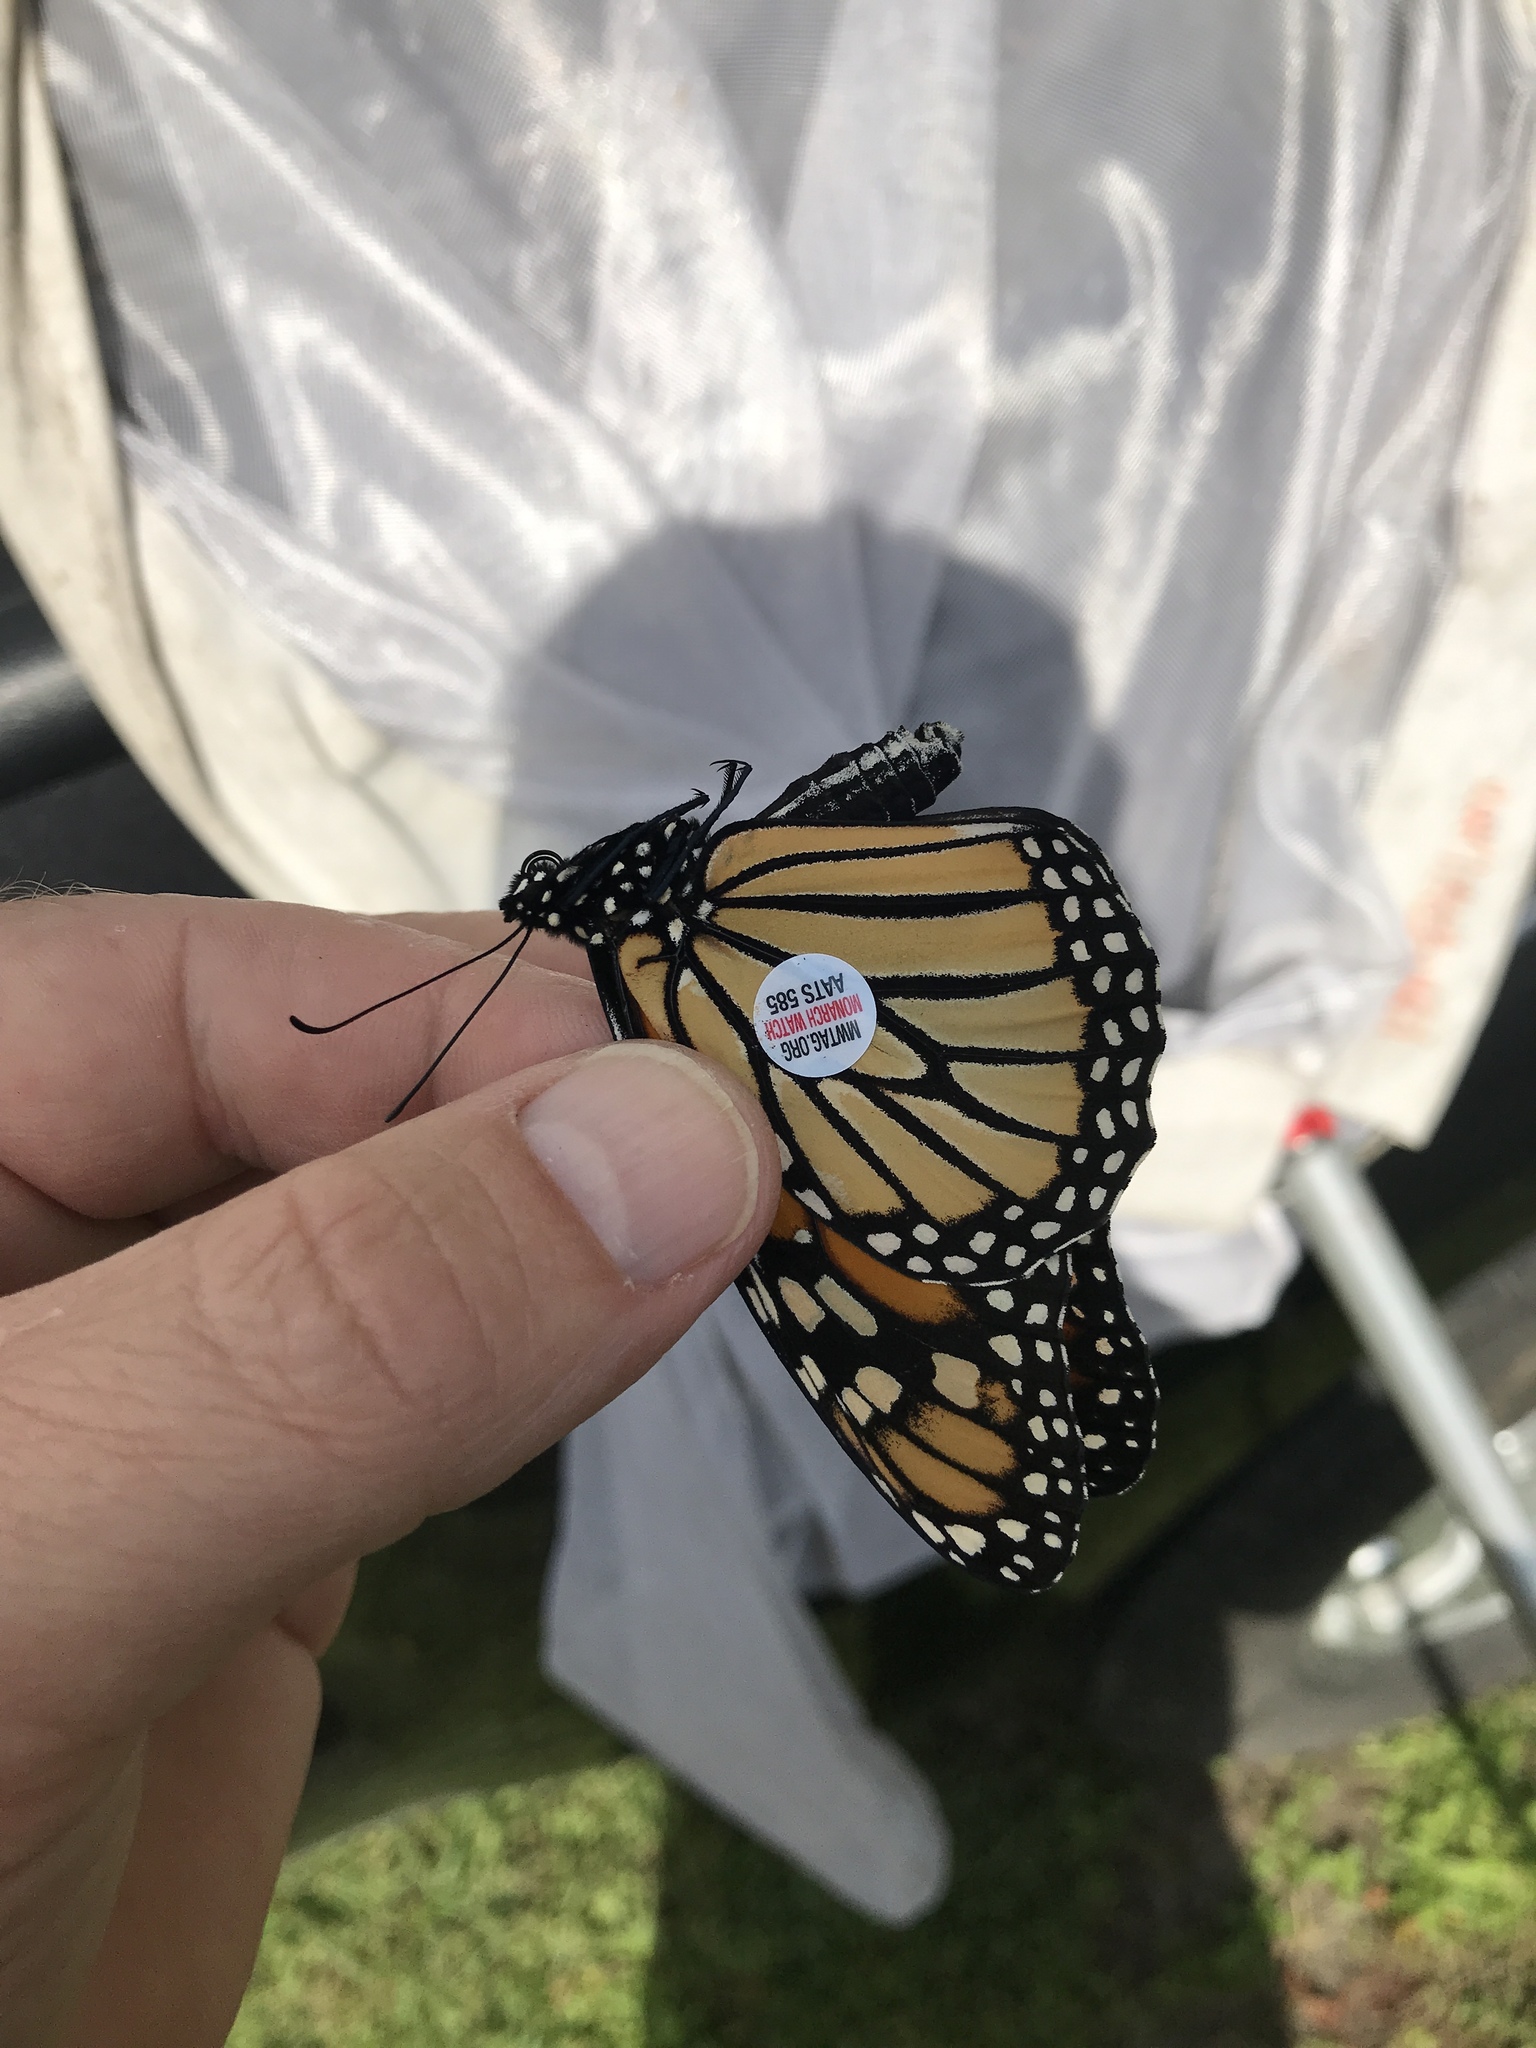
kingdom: Animalia
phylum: Arthropoda
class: Insecta
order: Lepidoptera
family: Nymphalidae
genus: Danaus
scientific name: Danaus plexippus
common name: Monarch
